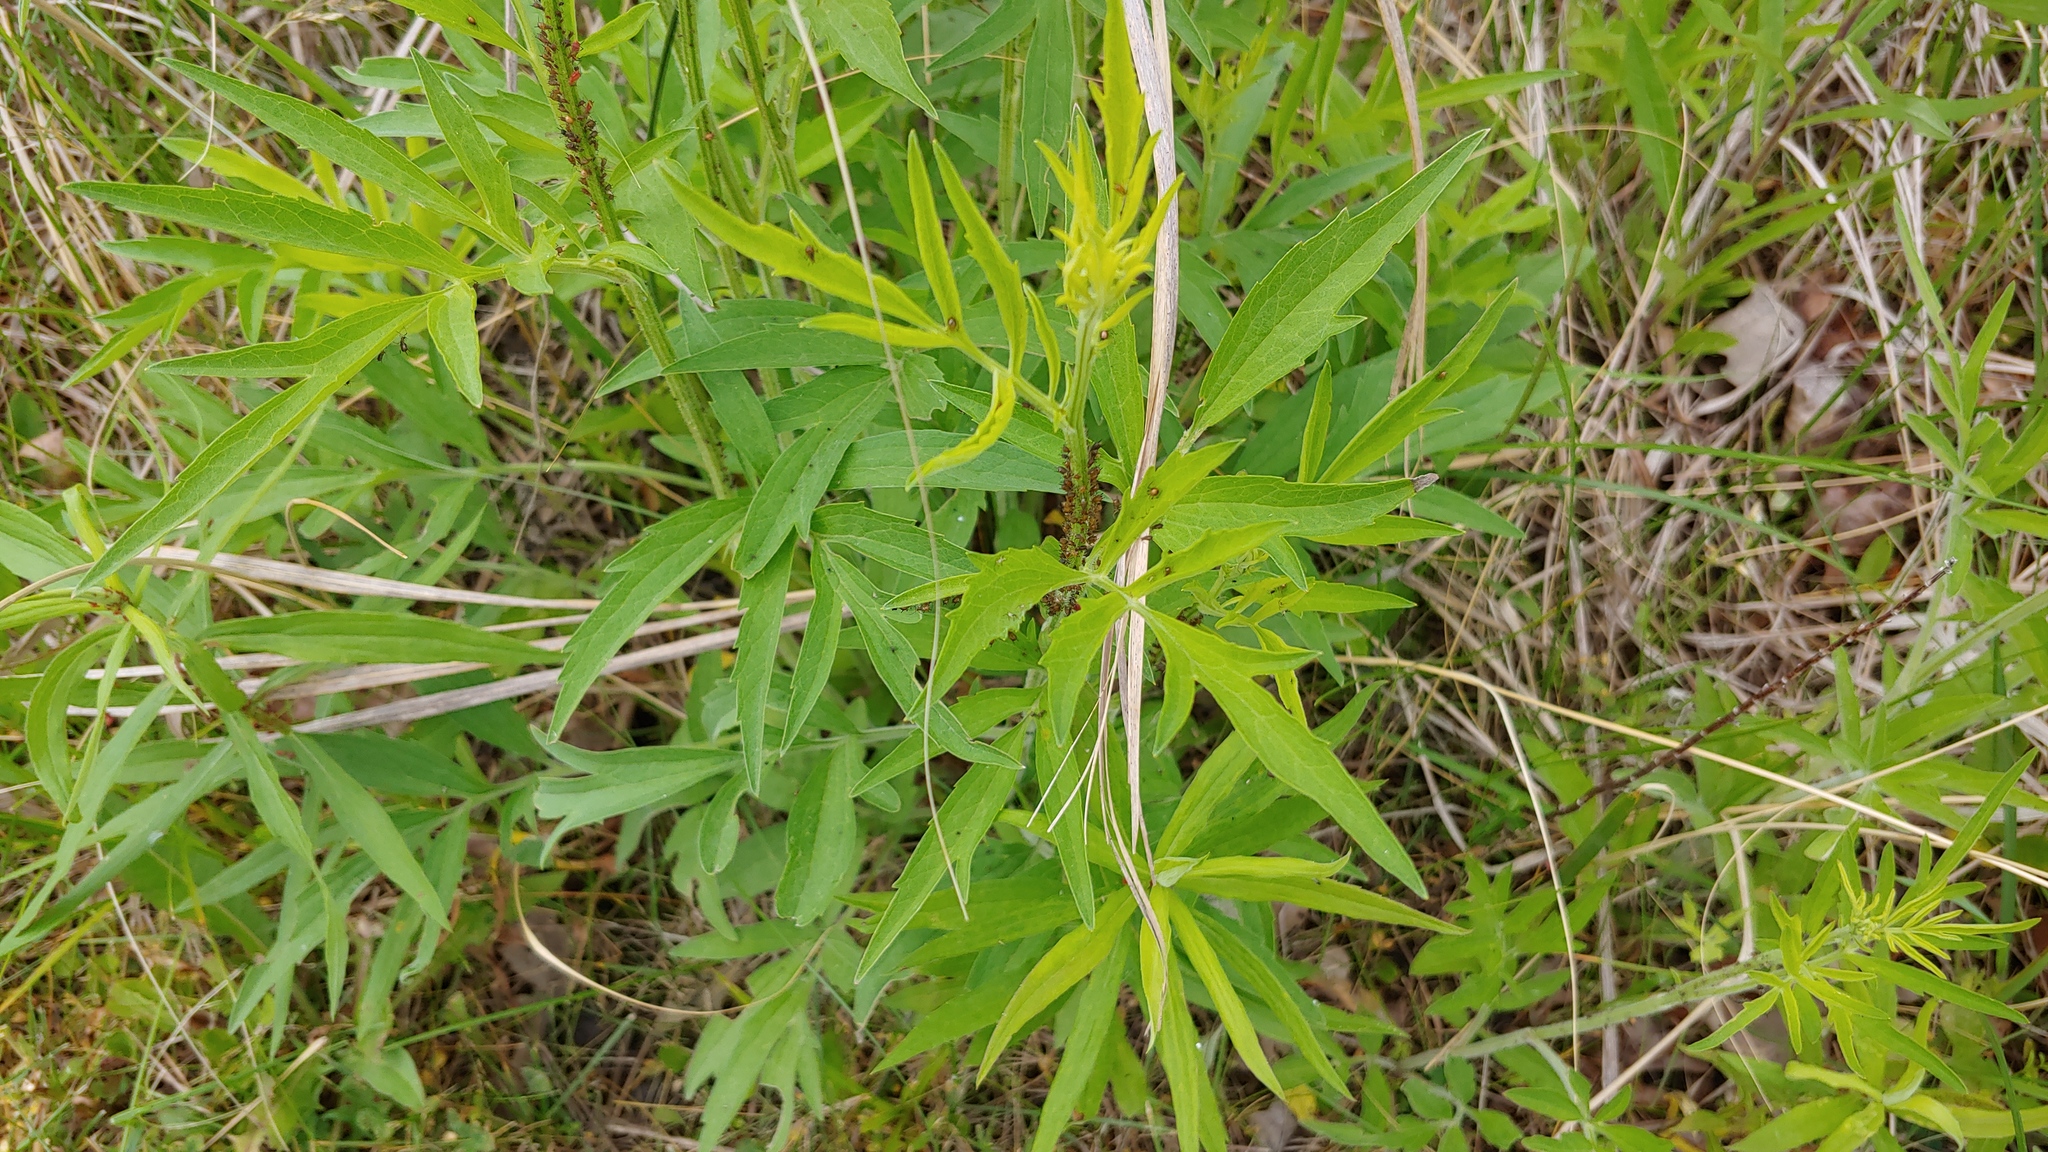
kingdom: Plantae
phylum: Tracheophyta
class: Magnoliopsida
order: Asterales
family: Asteraceae
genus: Ratibida
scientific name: Ratibida pinnata
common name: Drooping prairie-coneflower
